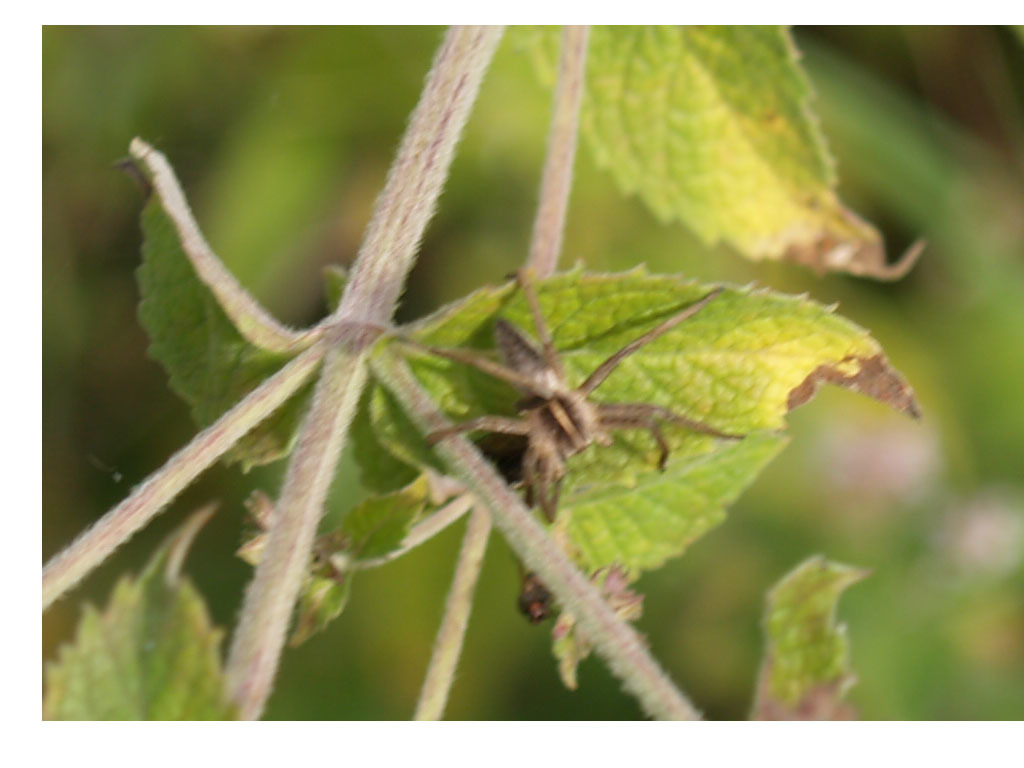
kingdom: Animalia
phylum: Arthropoda
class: Arachnida
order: Araneae
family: Pisauridae
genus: Pisaura
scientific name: Pisaura mirabilis
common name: Tent spider
